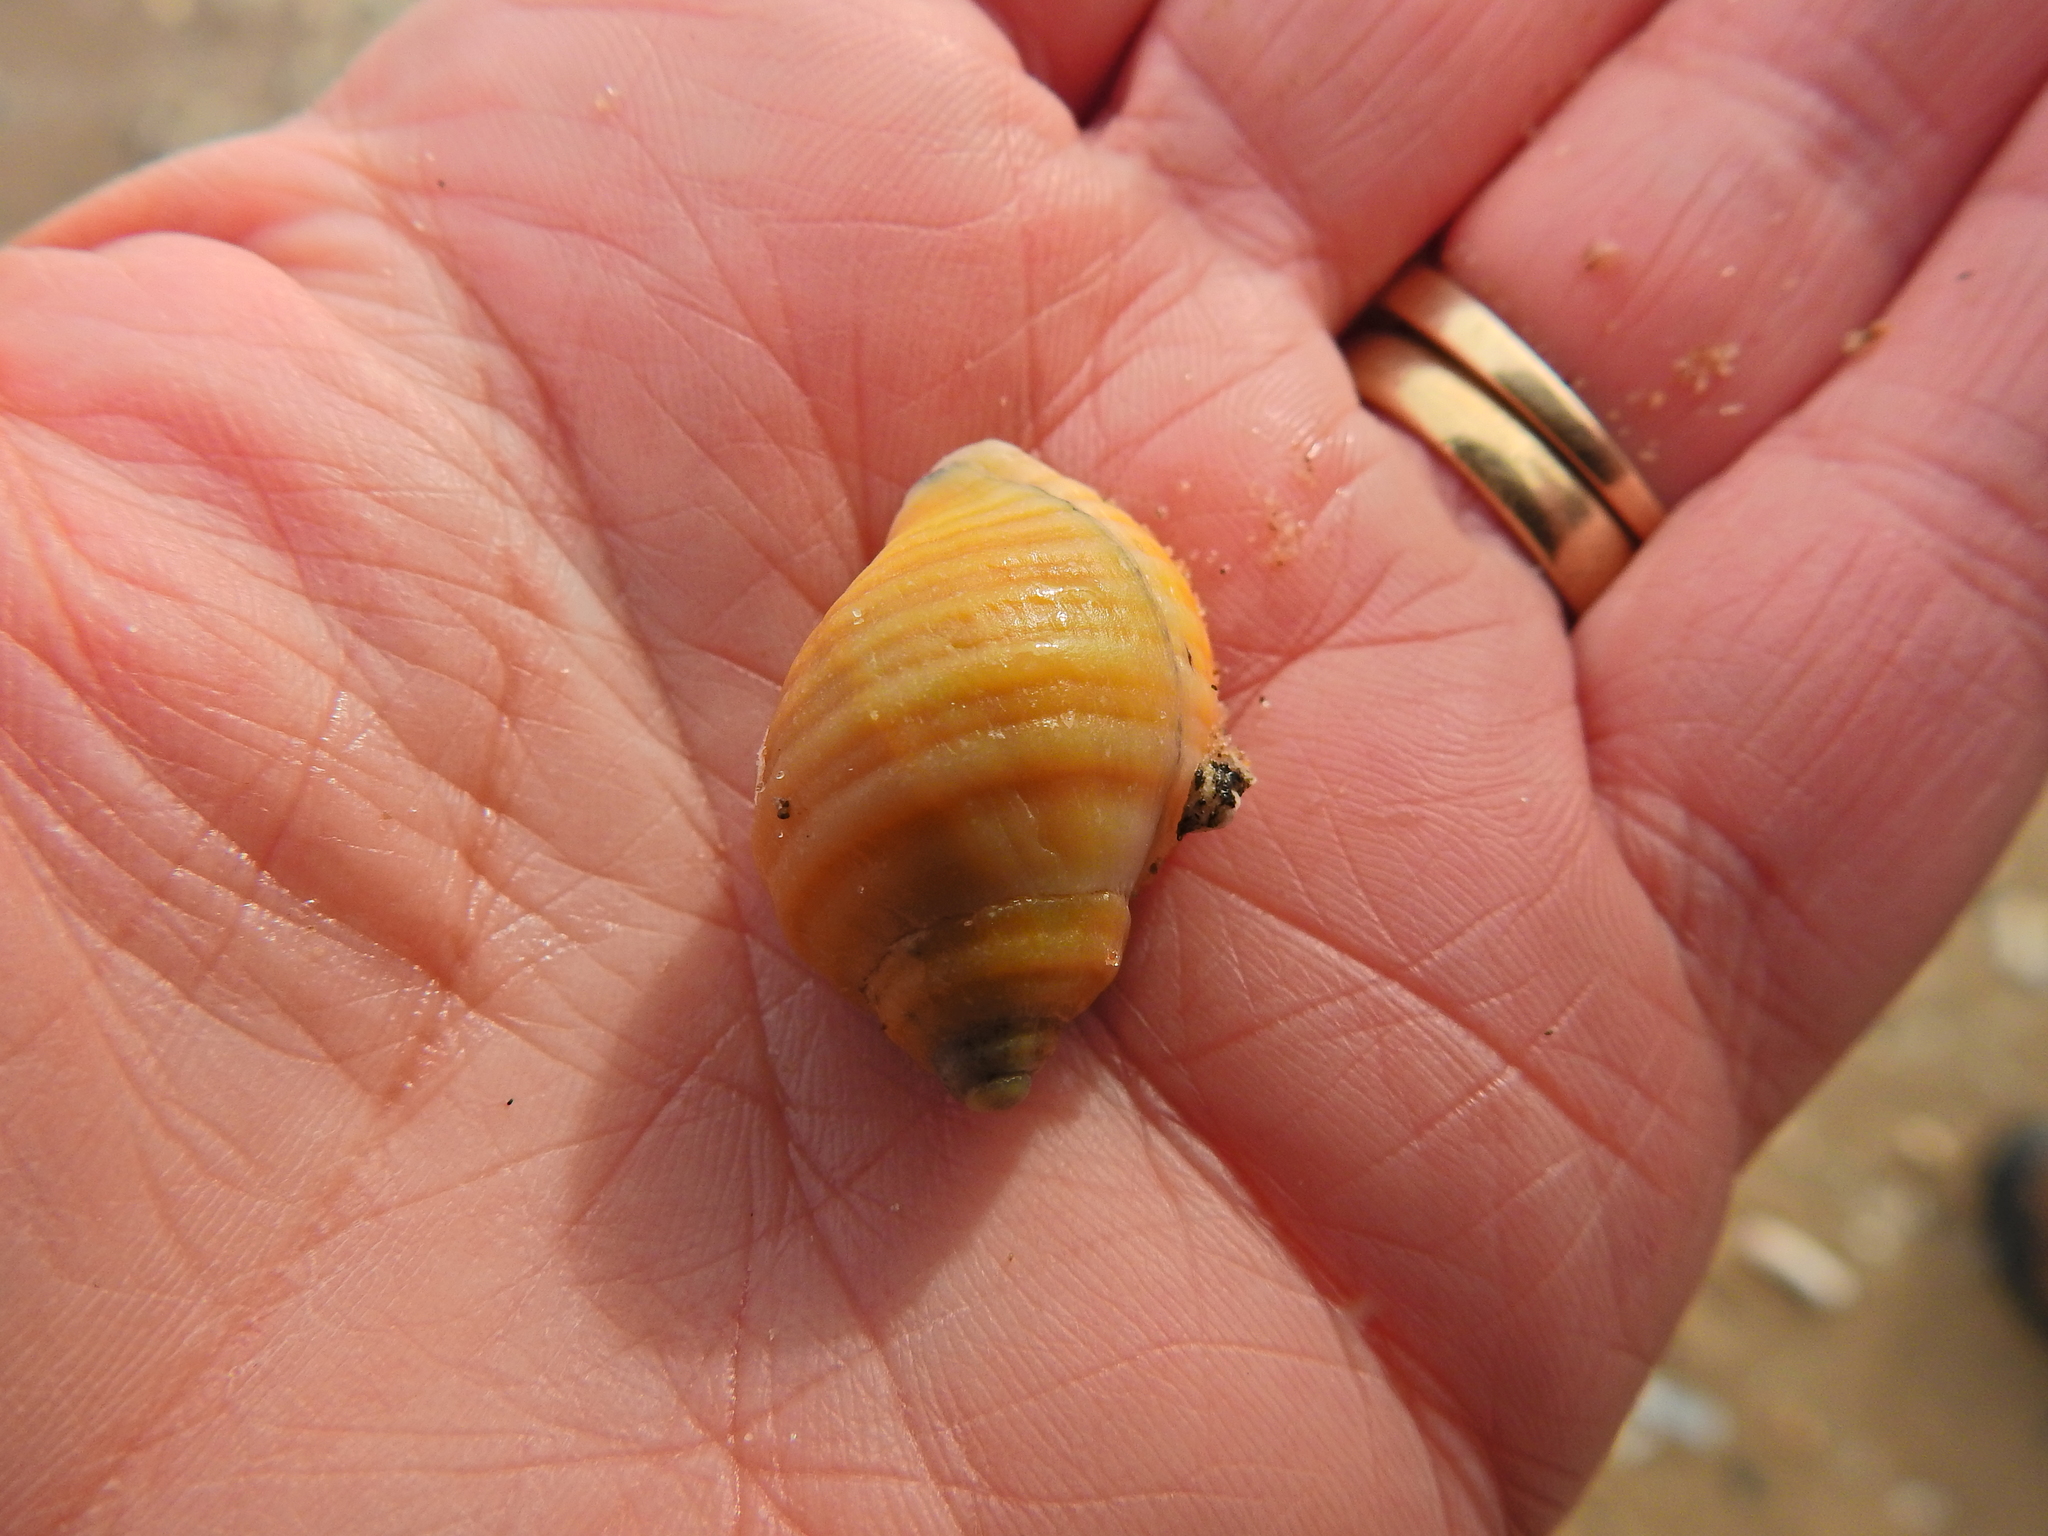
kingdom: Animalia
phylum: Mollusca
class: Gastropoda
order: Neogastropoda
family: Muricidae
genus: Nucella
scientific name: Nucella lapillus
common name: Dog whelk
